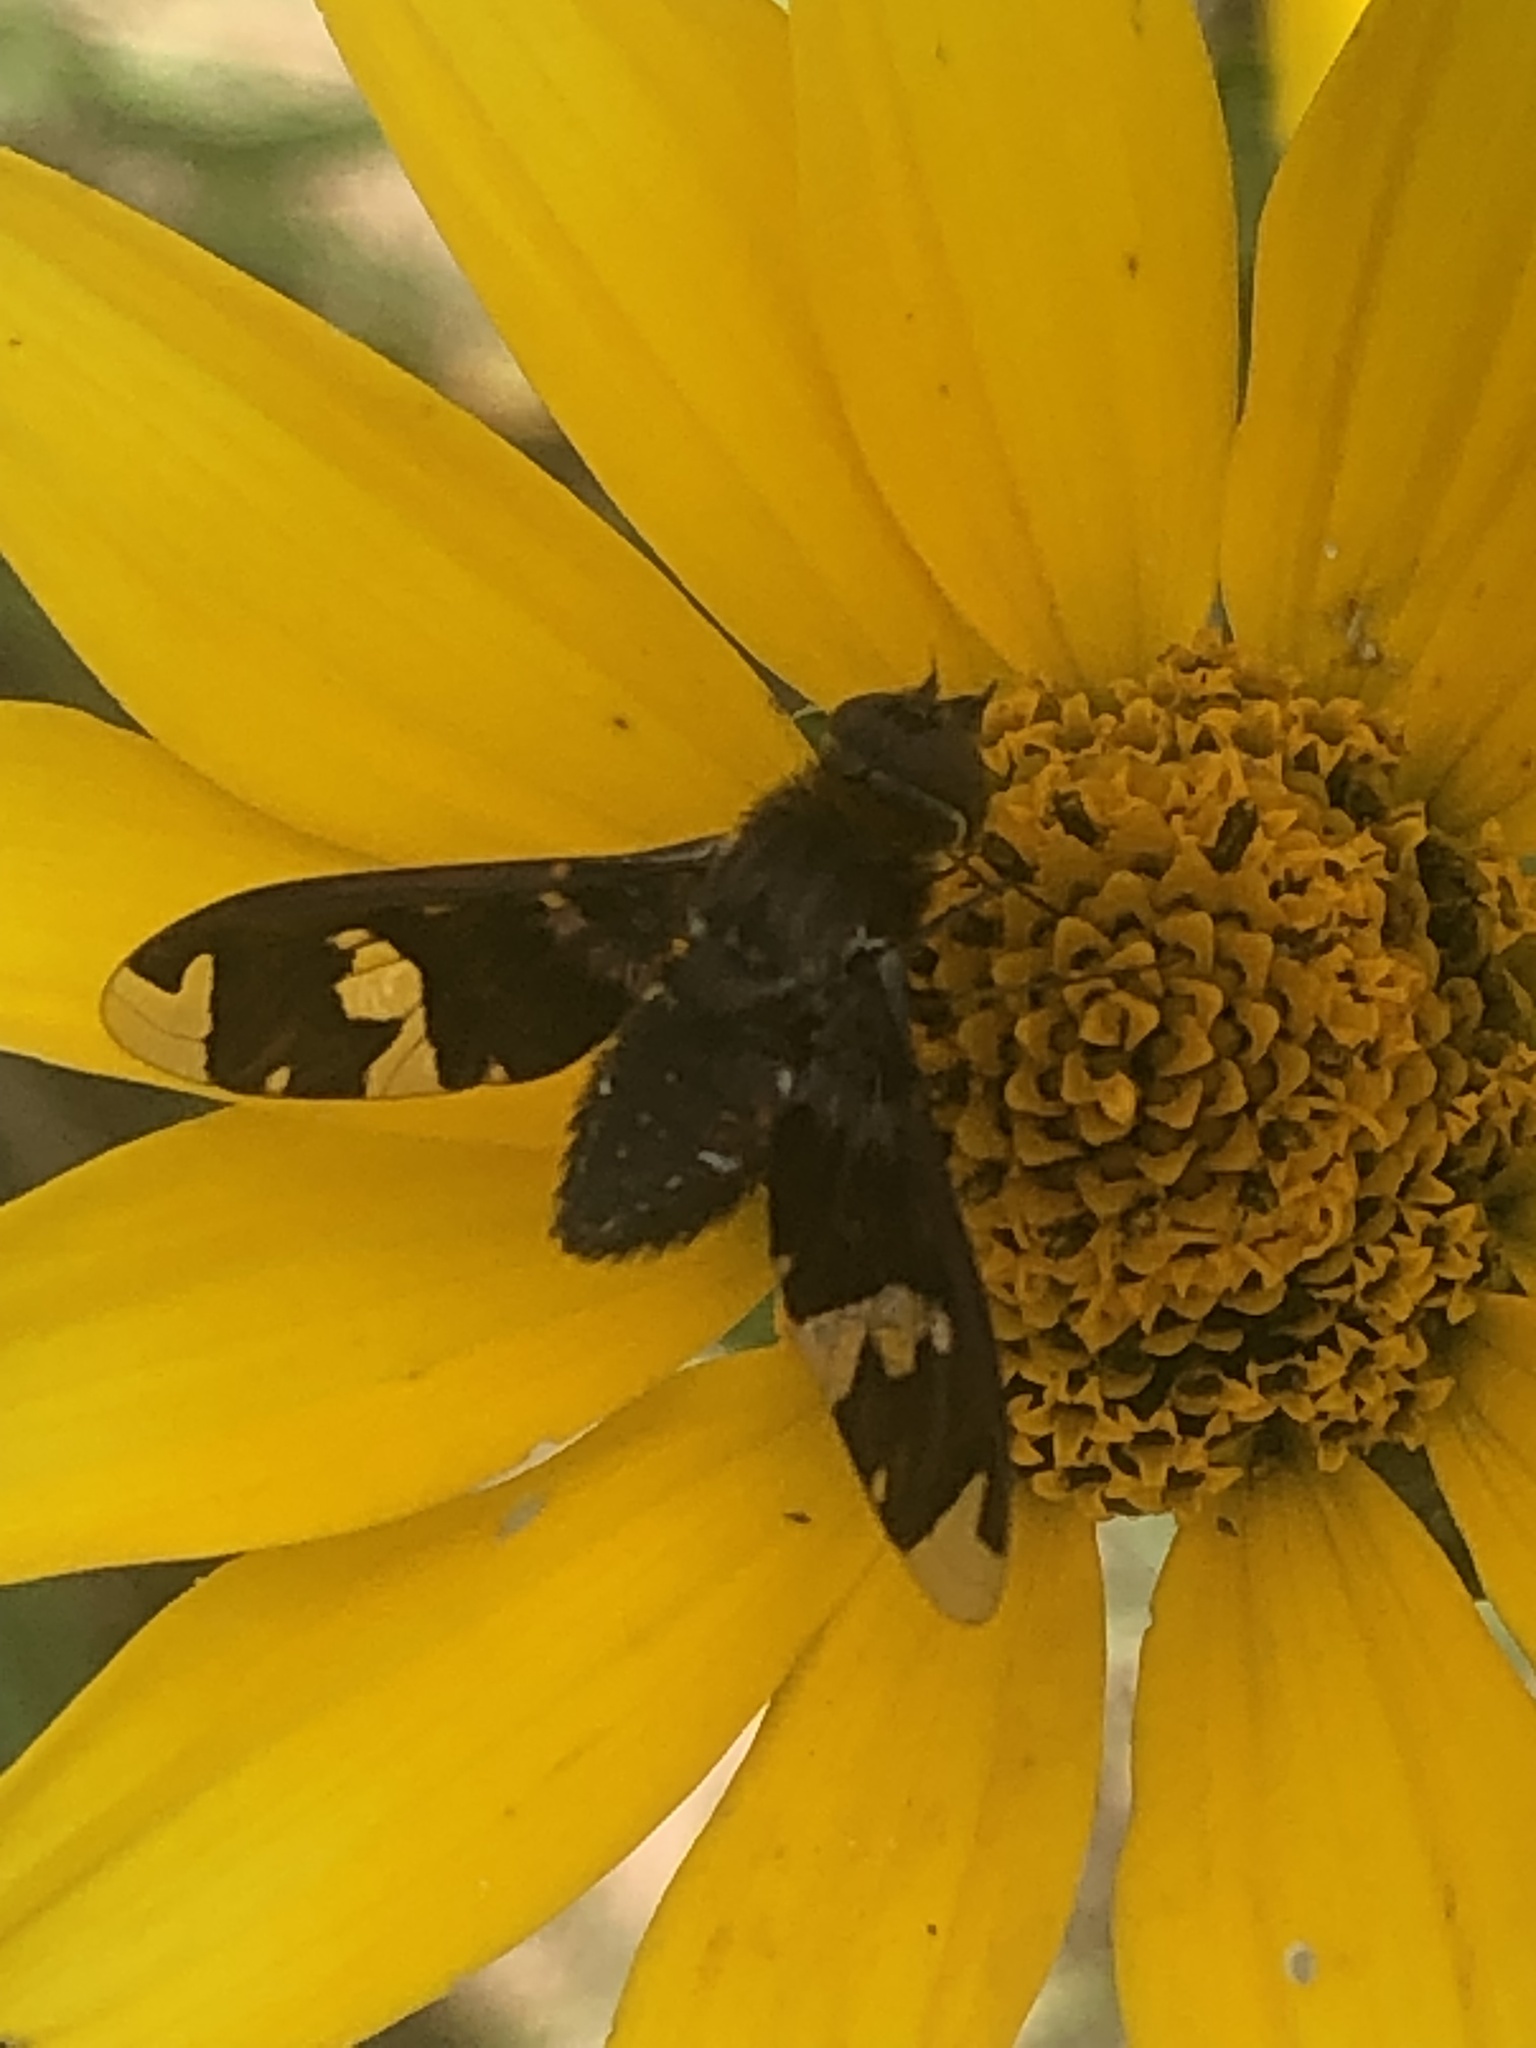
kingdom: Animalia
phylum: Arthropoda
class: Insecta
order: Diptera
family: Bombyliidae
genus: Exoprosopa
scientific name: Exoprosopa decora
